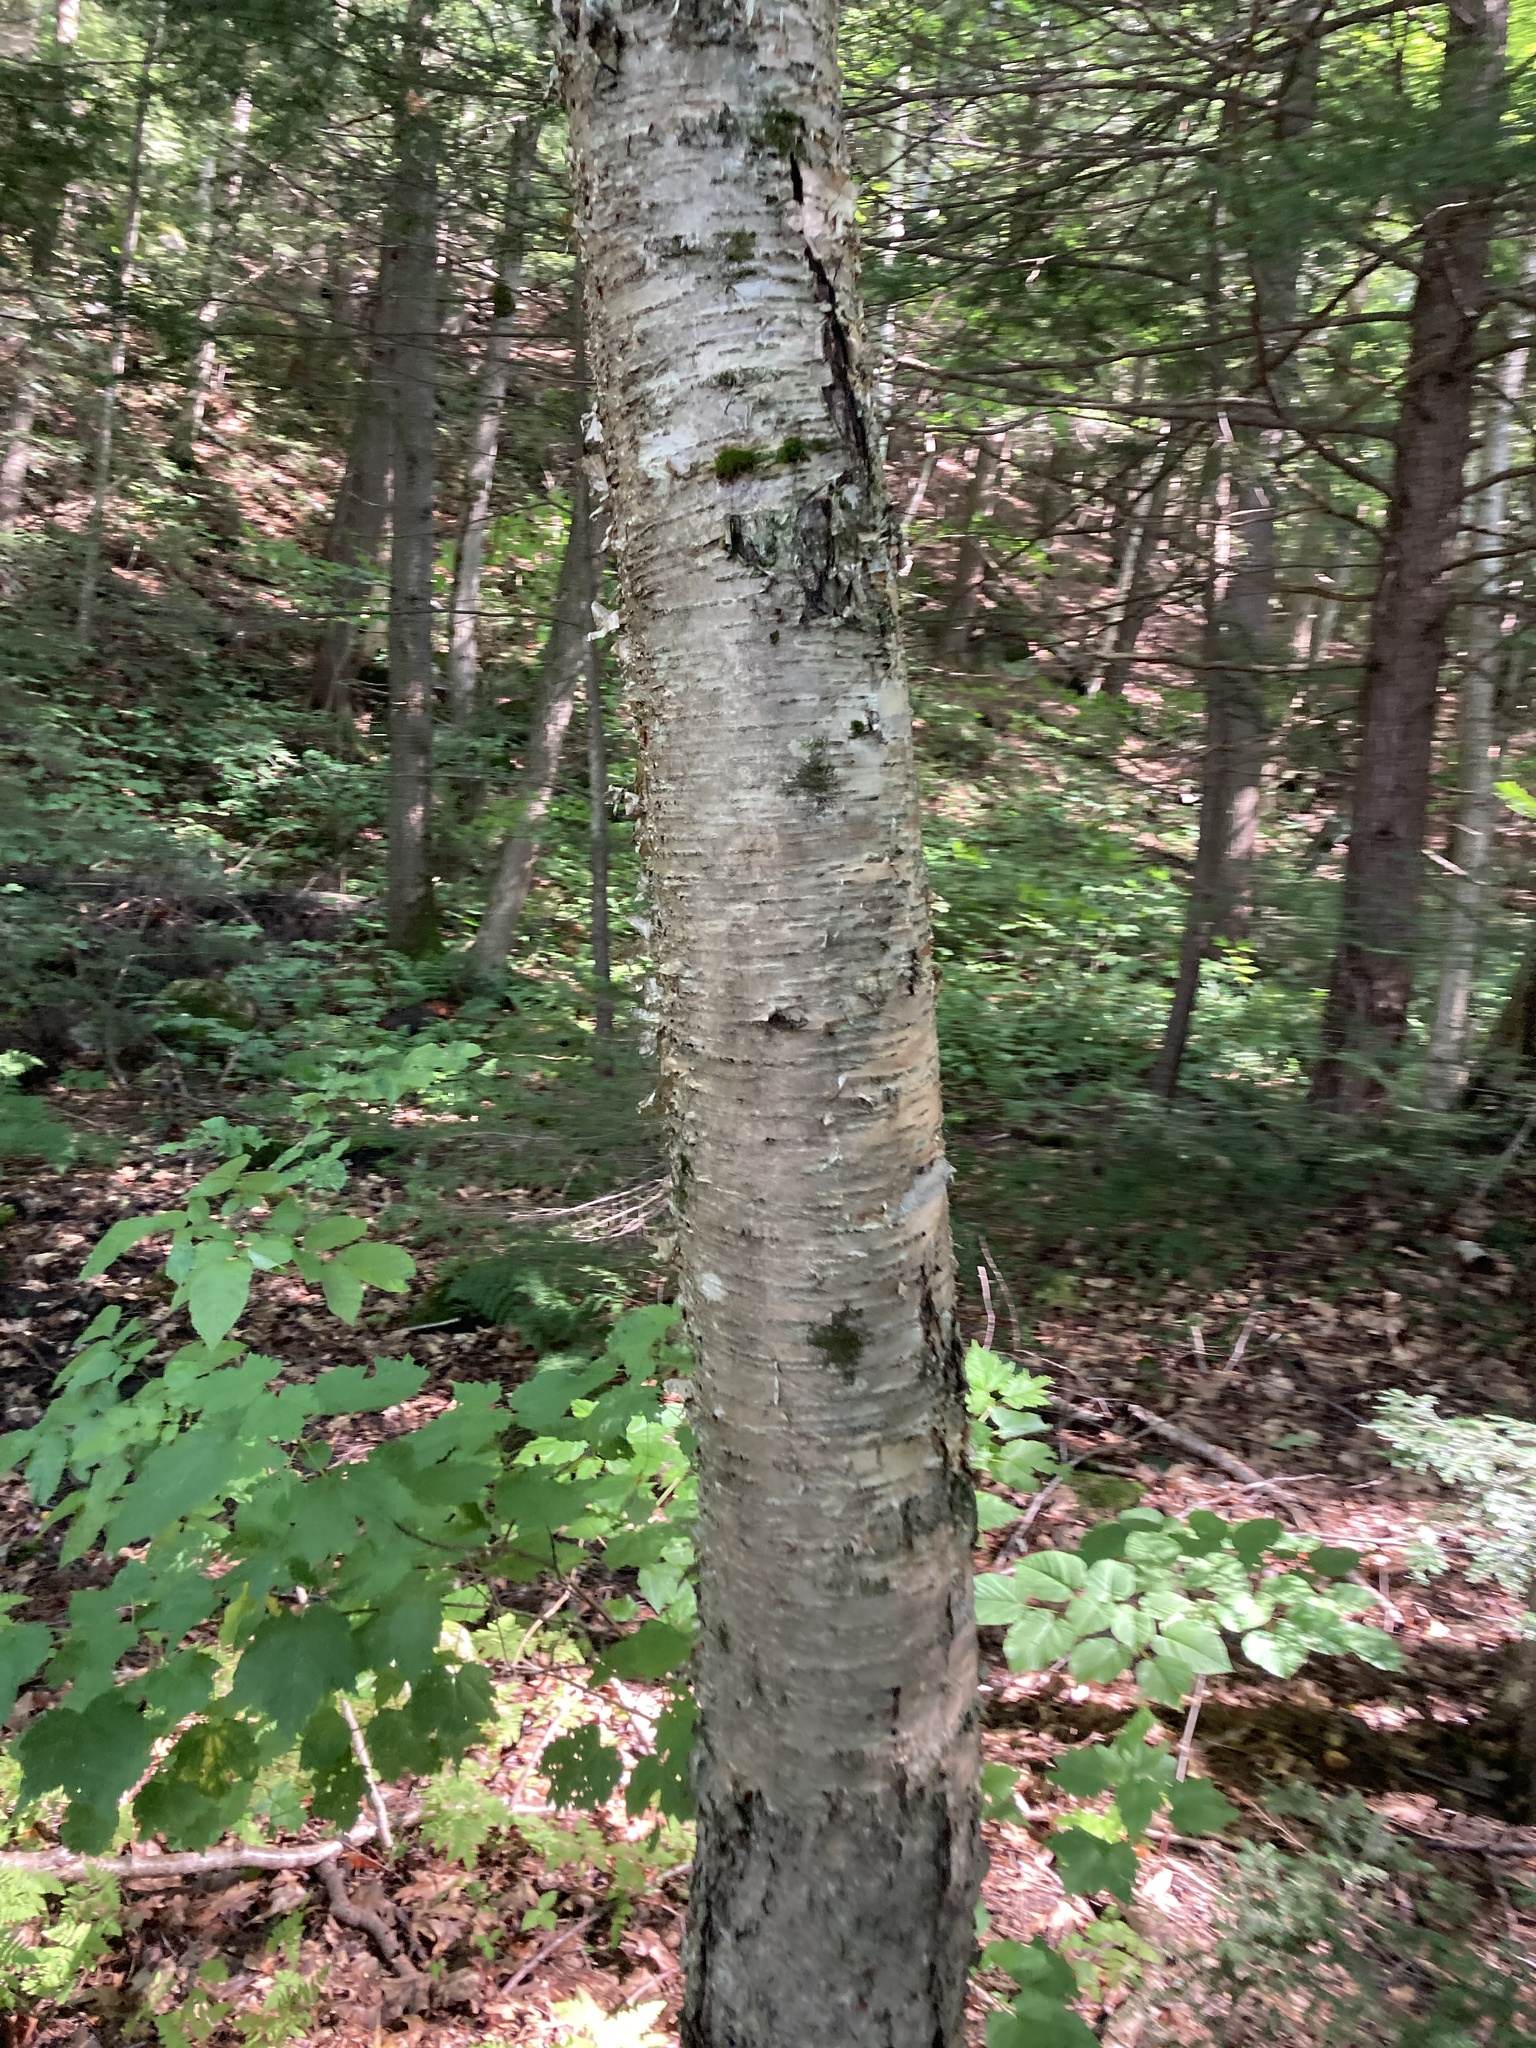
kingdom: Plantae
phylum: Tracheophyta
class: Magnoliopsida
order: Fagales
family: Betulaceae
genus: Betula
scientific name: Betula alleghaniensis
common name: Yellow birch
